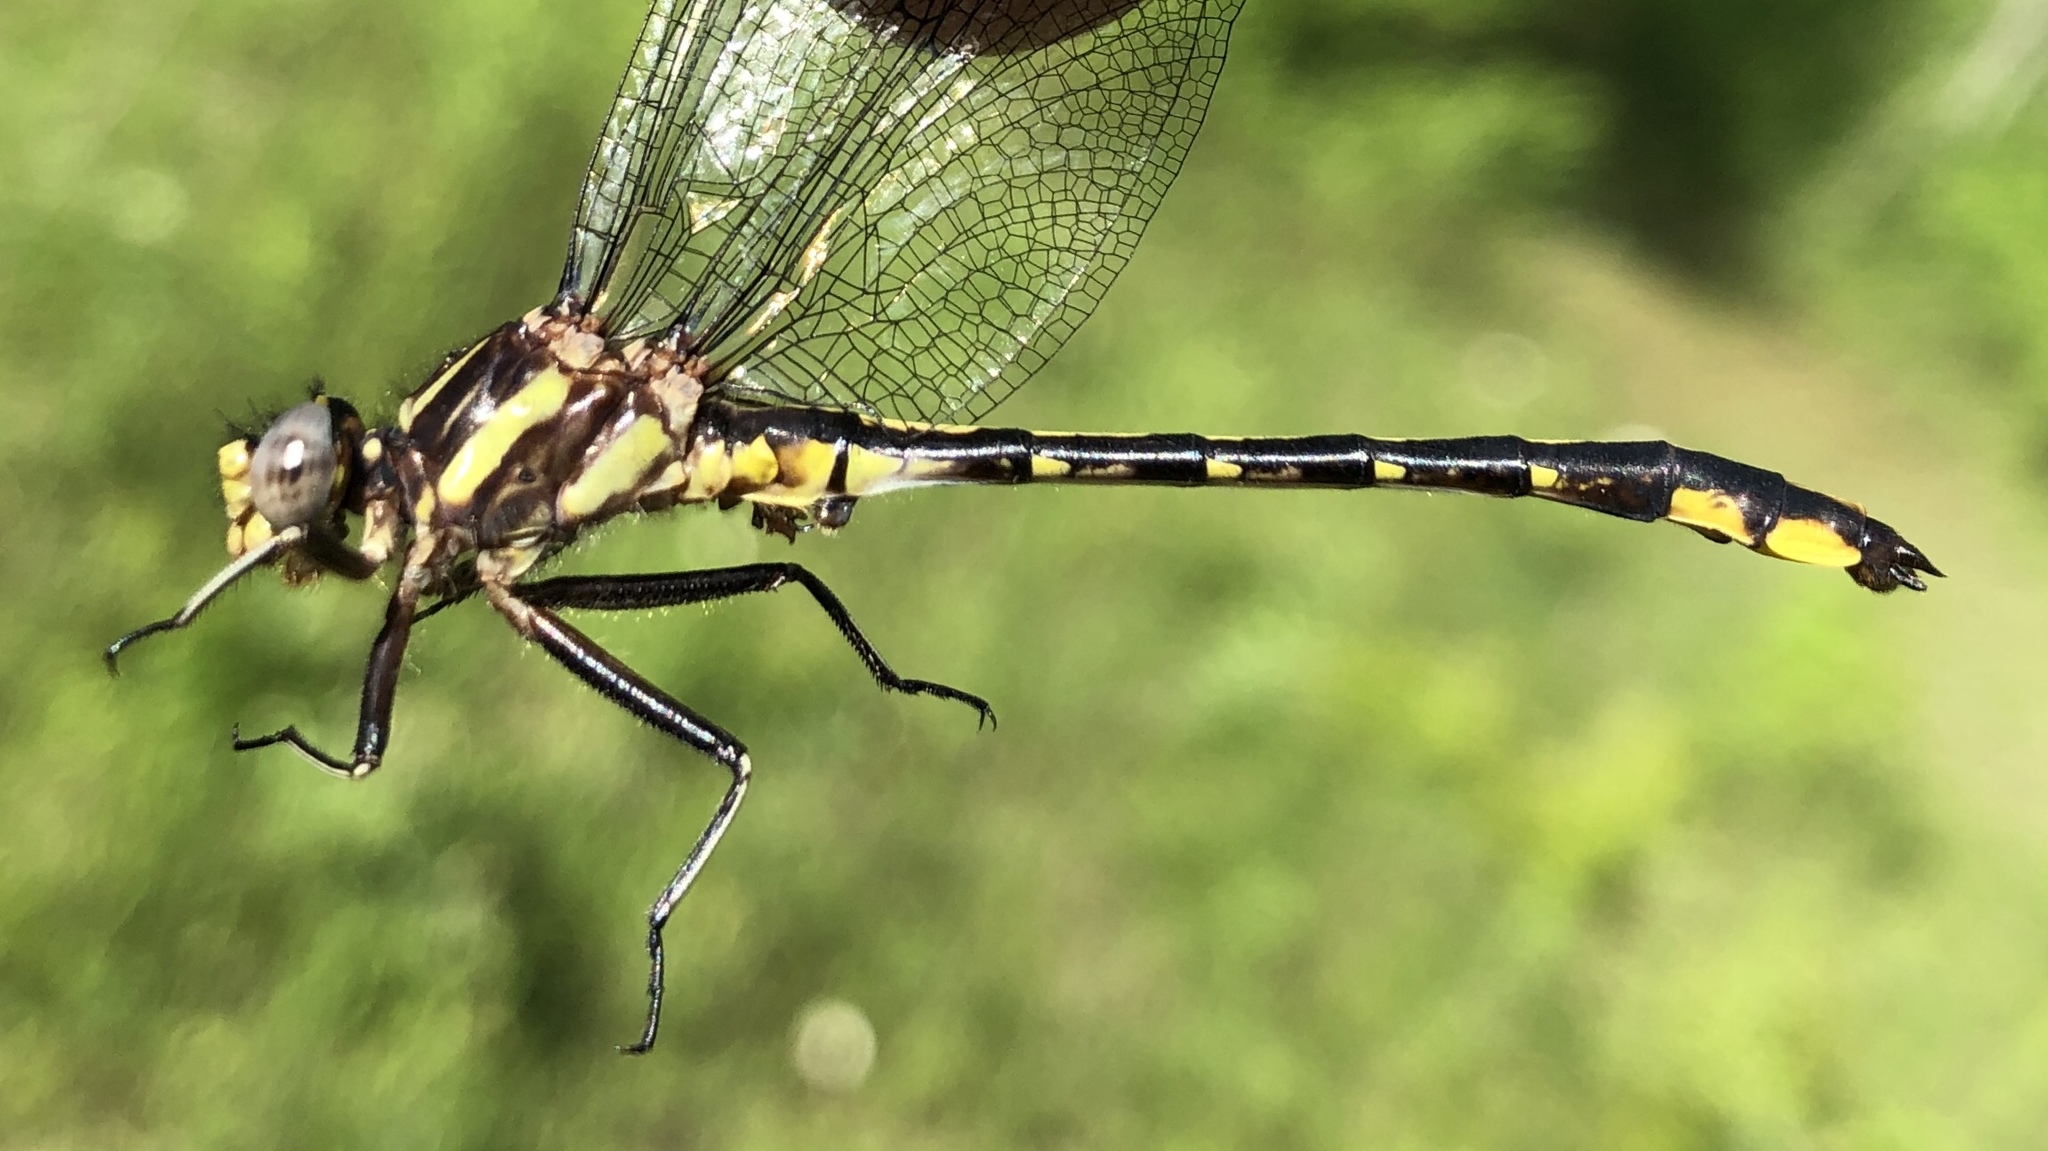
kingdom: Animalia
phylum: Arthropoda
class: Insecta
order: Odonata
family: Gomphidae
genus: Phanogomphus
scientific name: Phanogomphus exilis
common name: Lancet clubtail
